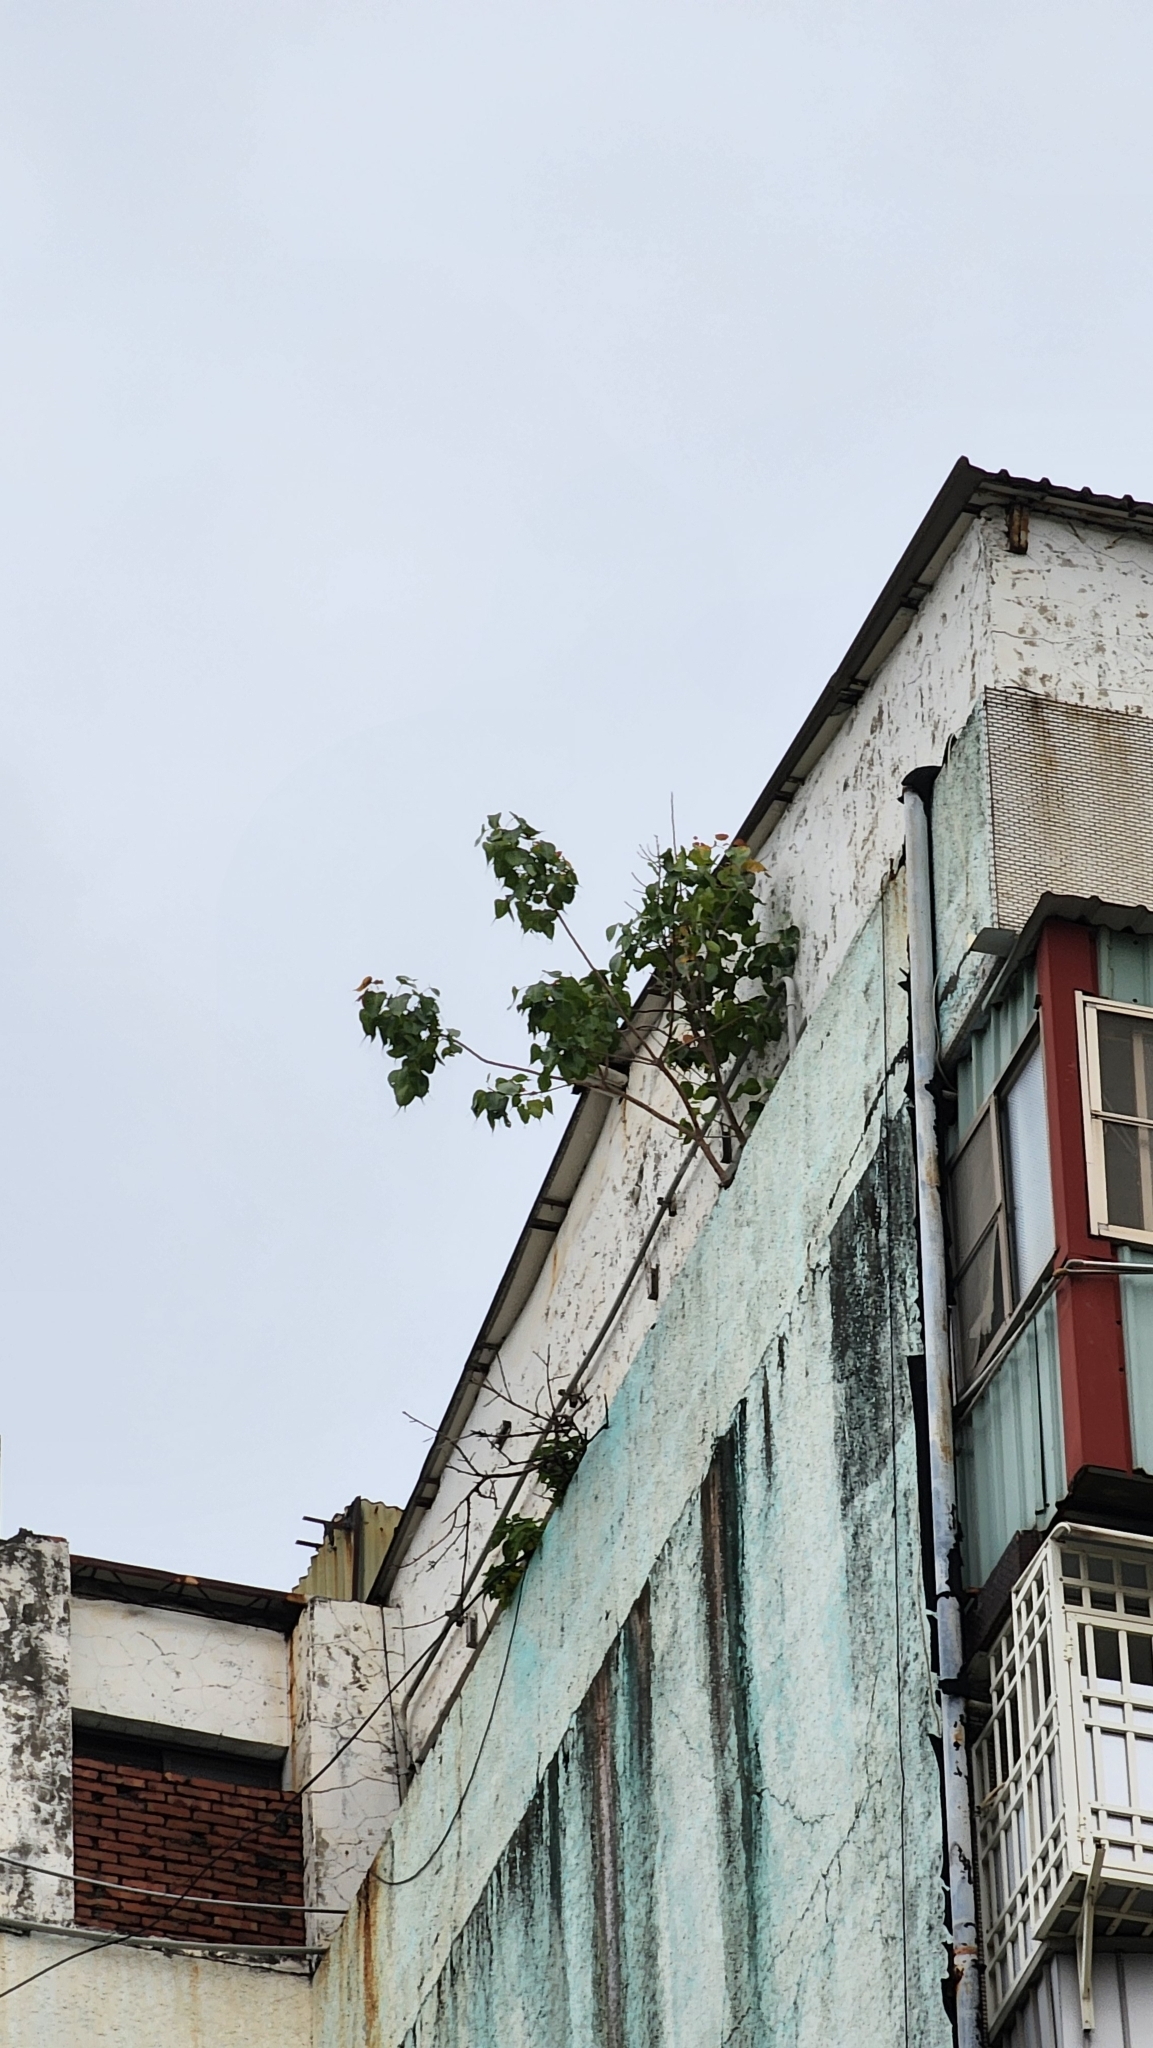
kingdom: Plantae
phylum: Tracheophyta
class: Magnoliopsida
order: Rosales
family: Moraceae
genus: Ficus
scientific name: Ficus religiosa
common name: Bodhi tree
